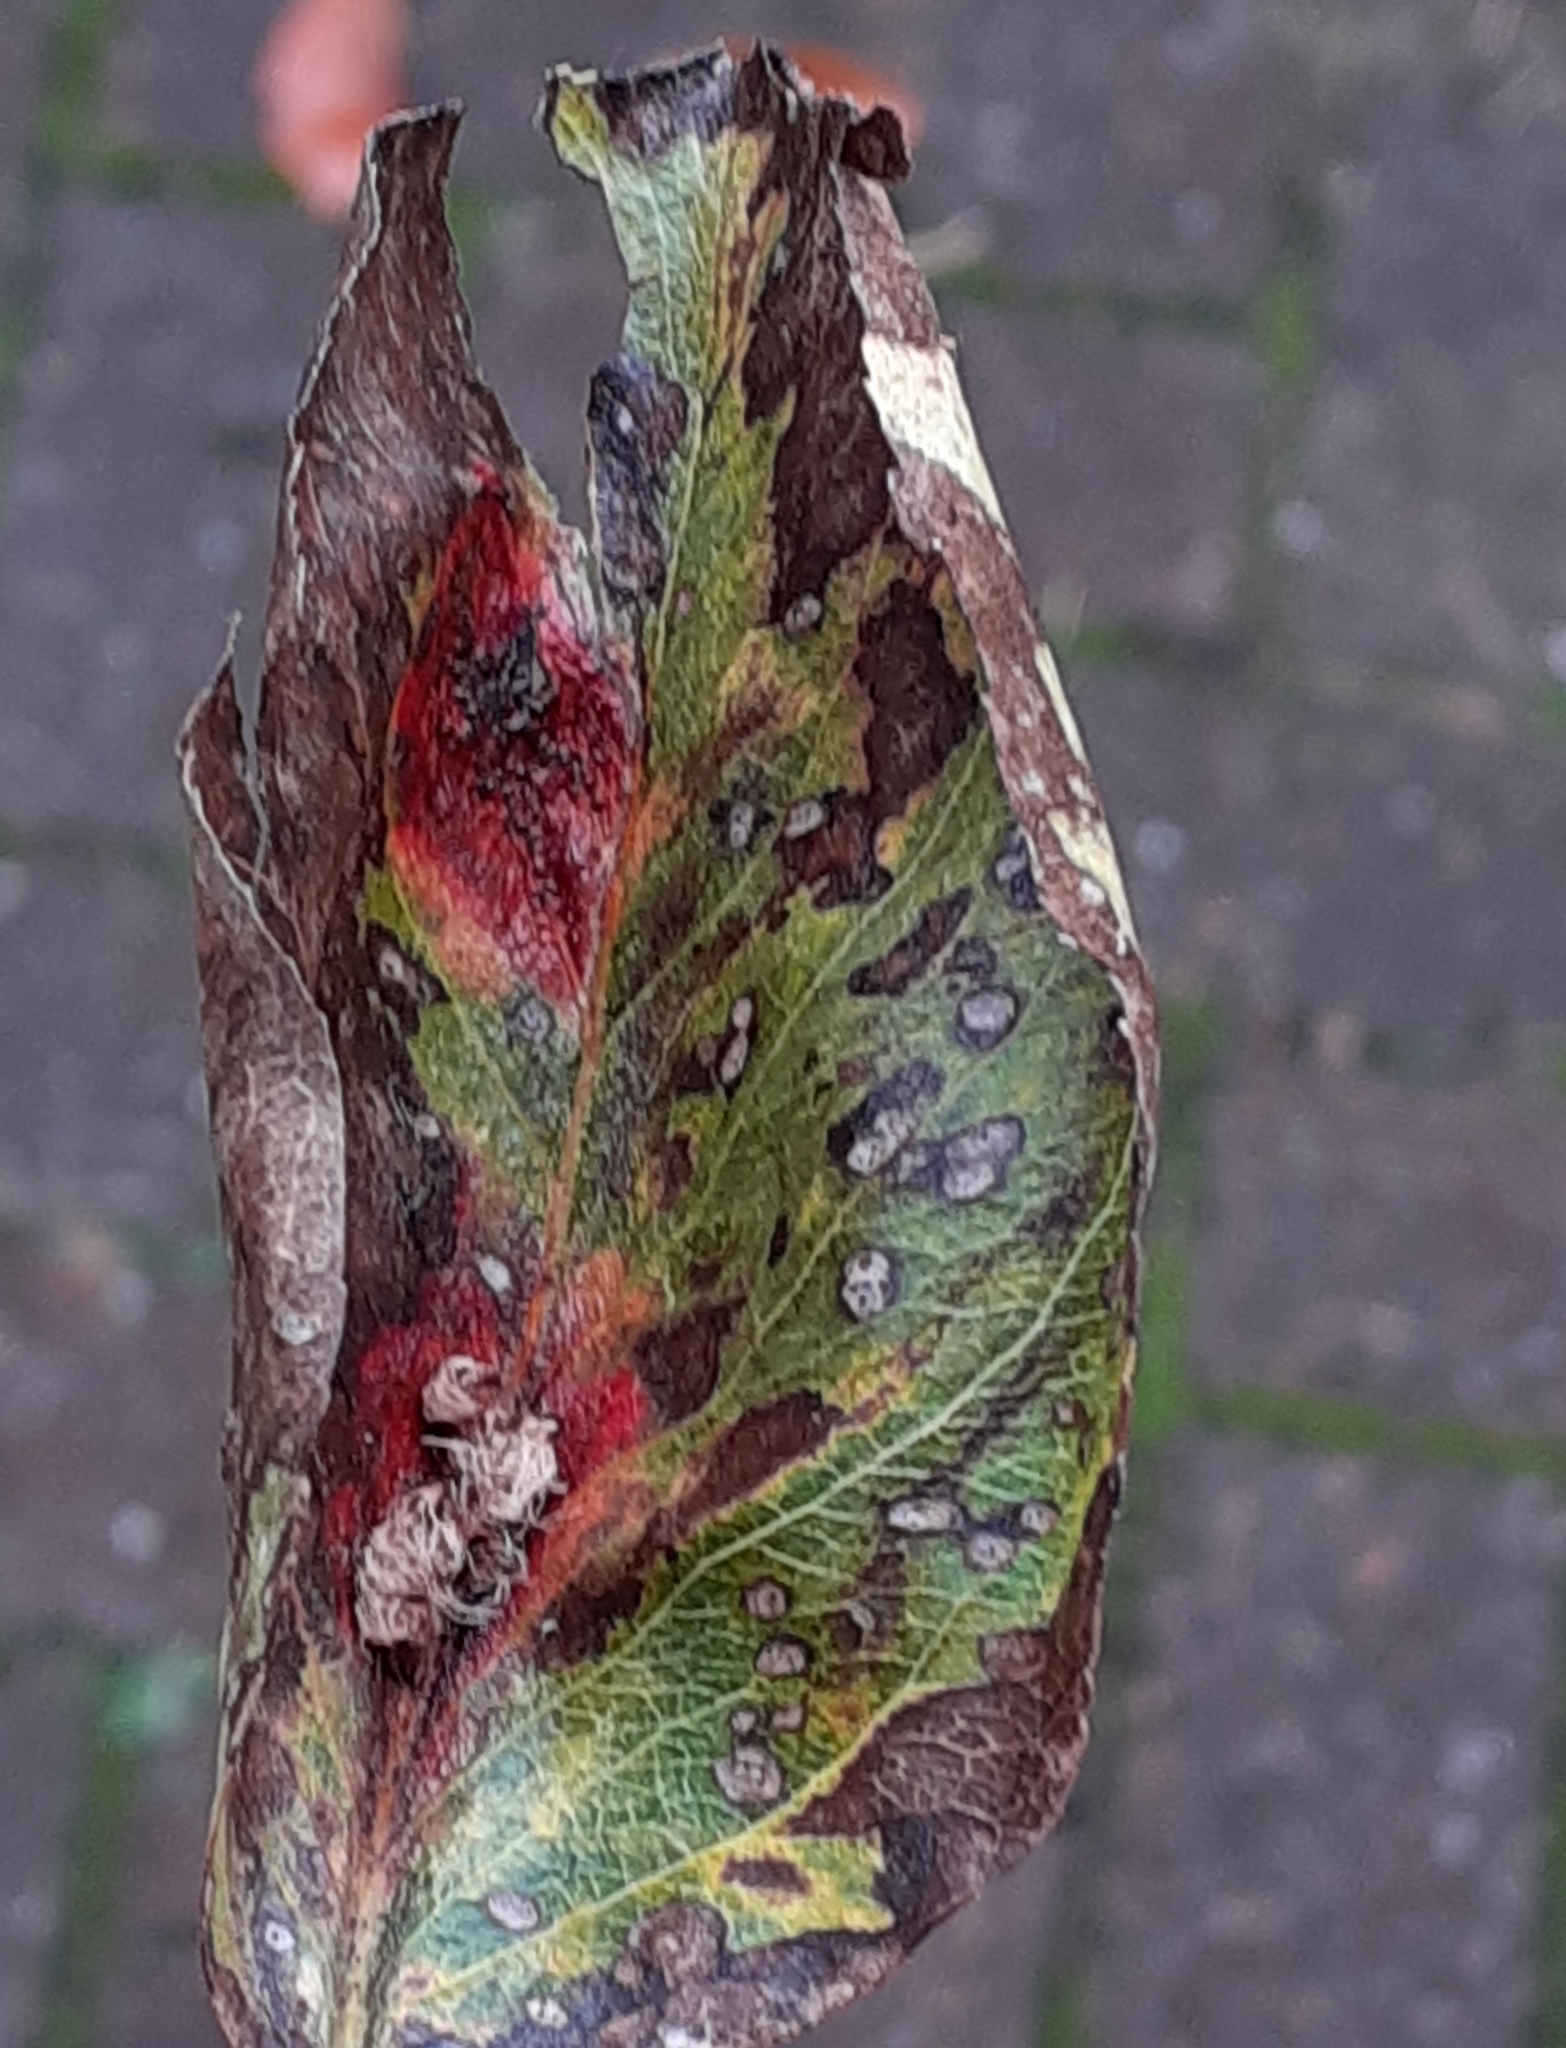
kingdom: Fungi
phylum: Basidiomycota
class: Pucciniomycetes
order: Pucciniales
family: Gymnosporangiaceae
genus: Gymnosporangium
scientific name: Gymnosporangium sabinae
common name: Pear trellis rust fungus
